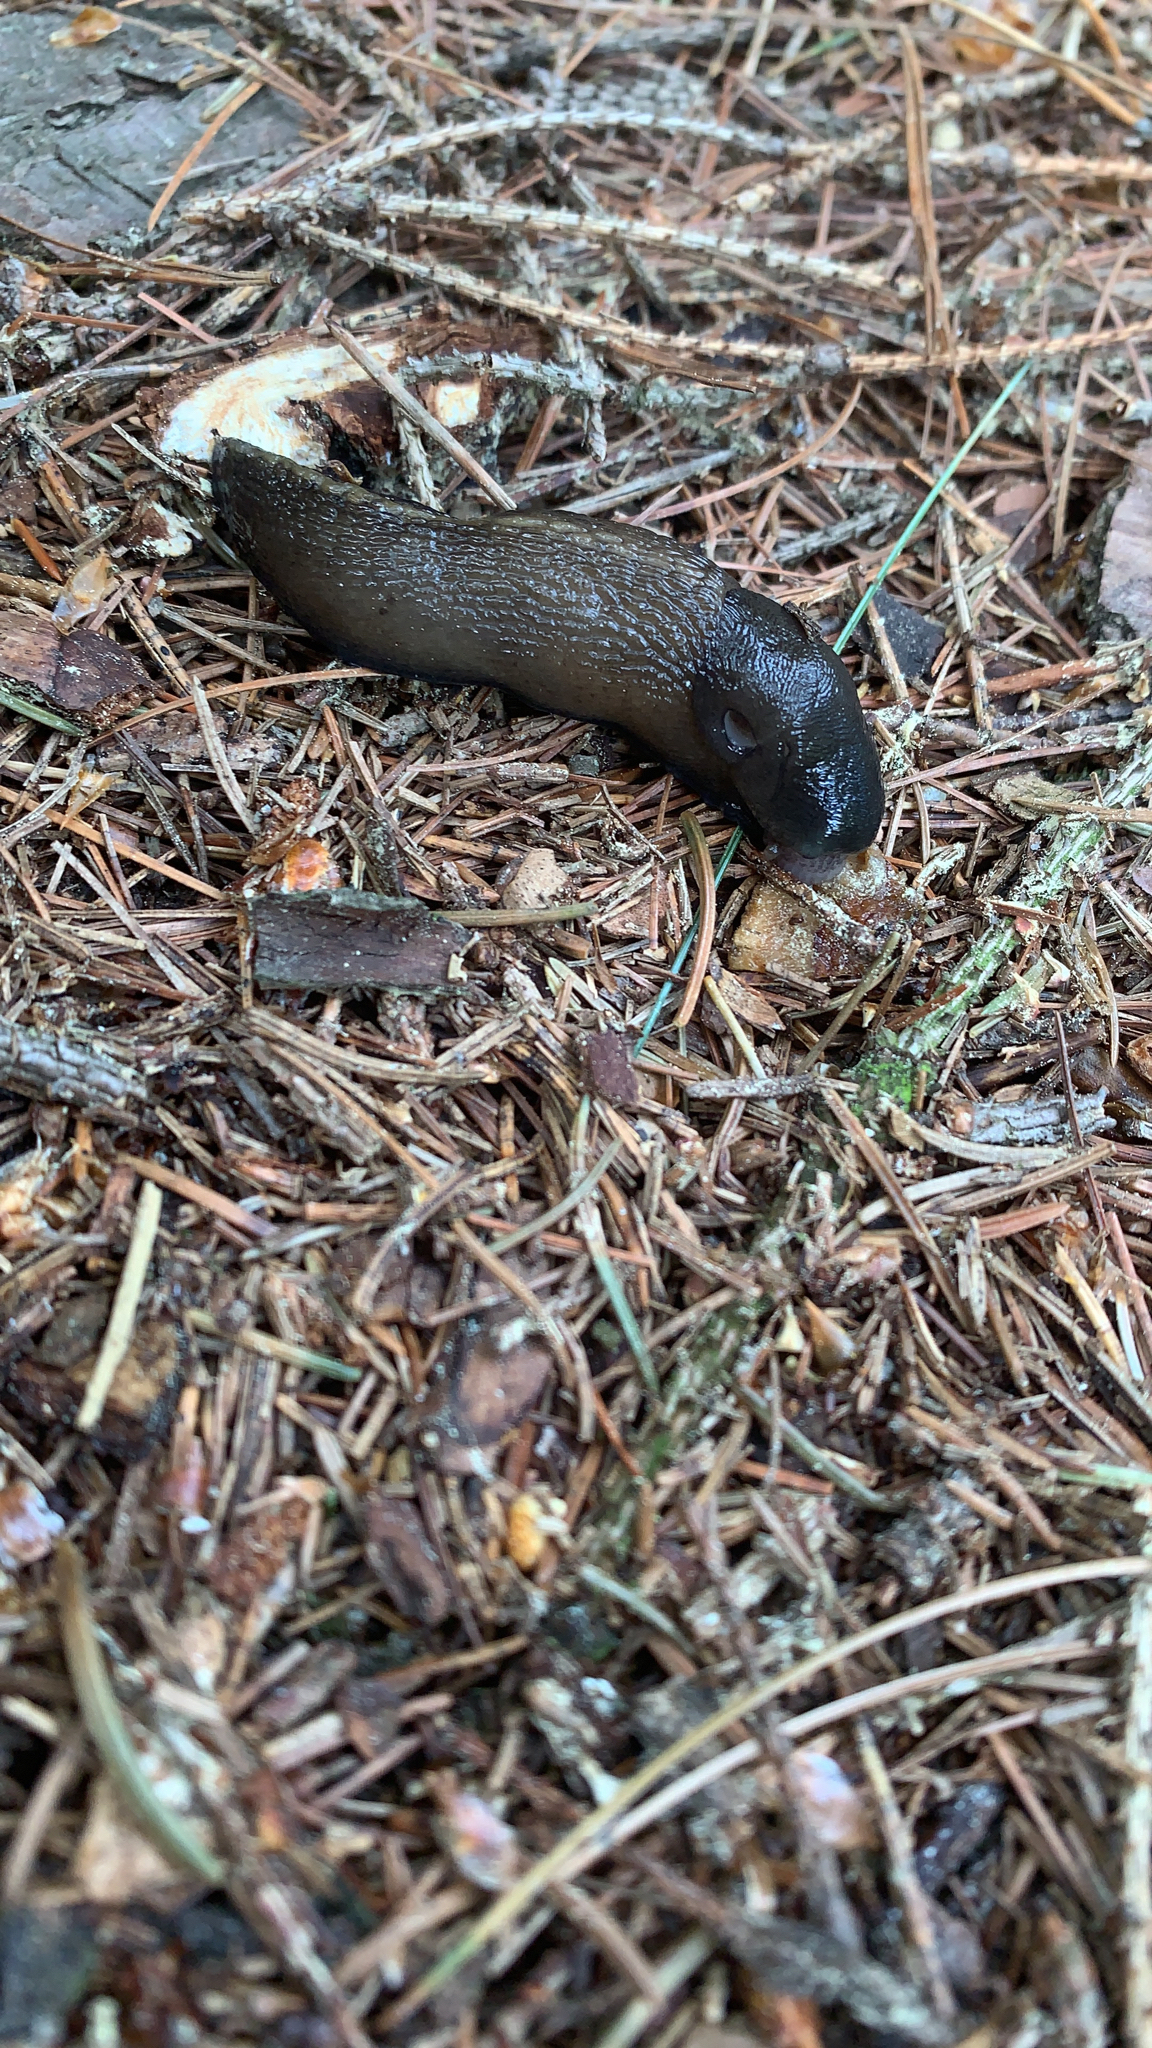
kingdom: Animalia
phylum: Mollusca
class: Gastropoda
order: Stylommatophora
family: Limacidae
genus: Limax
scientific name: Limax cinereoniger
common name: Ash-black slug
